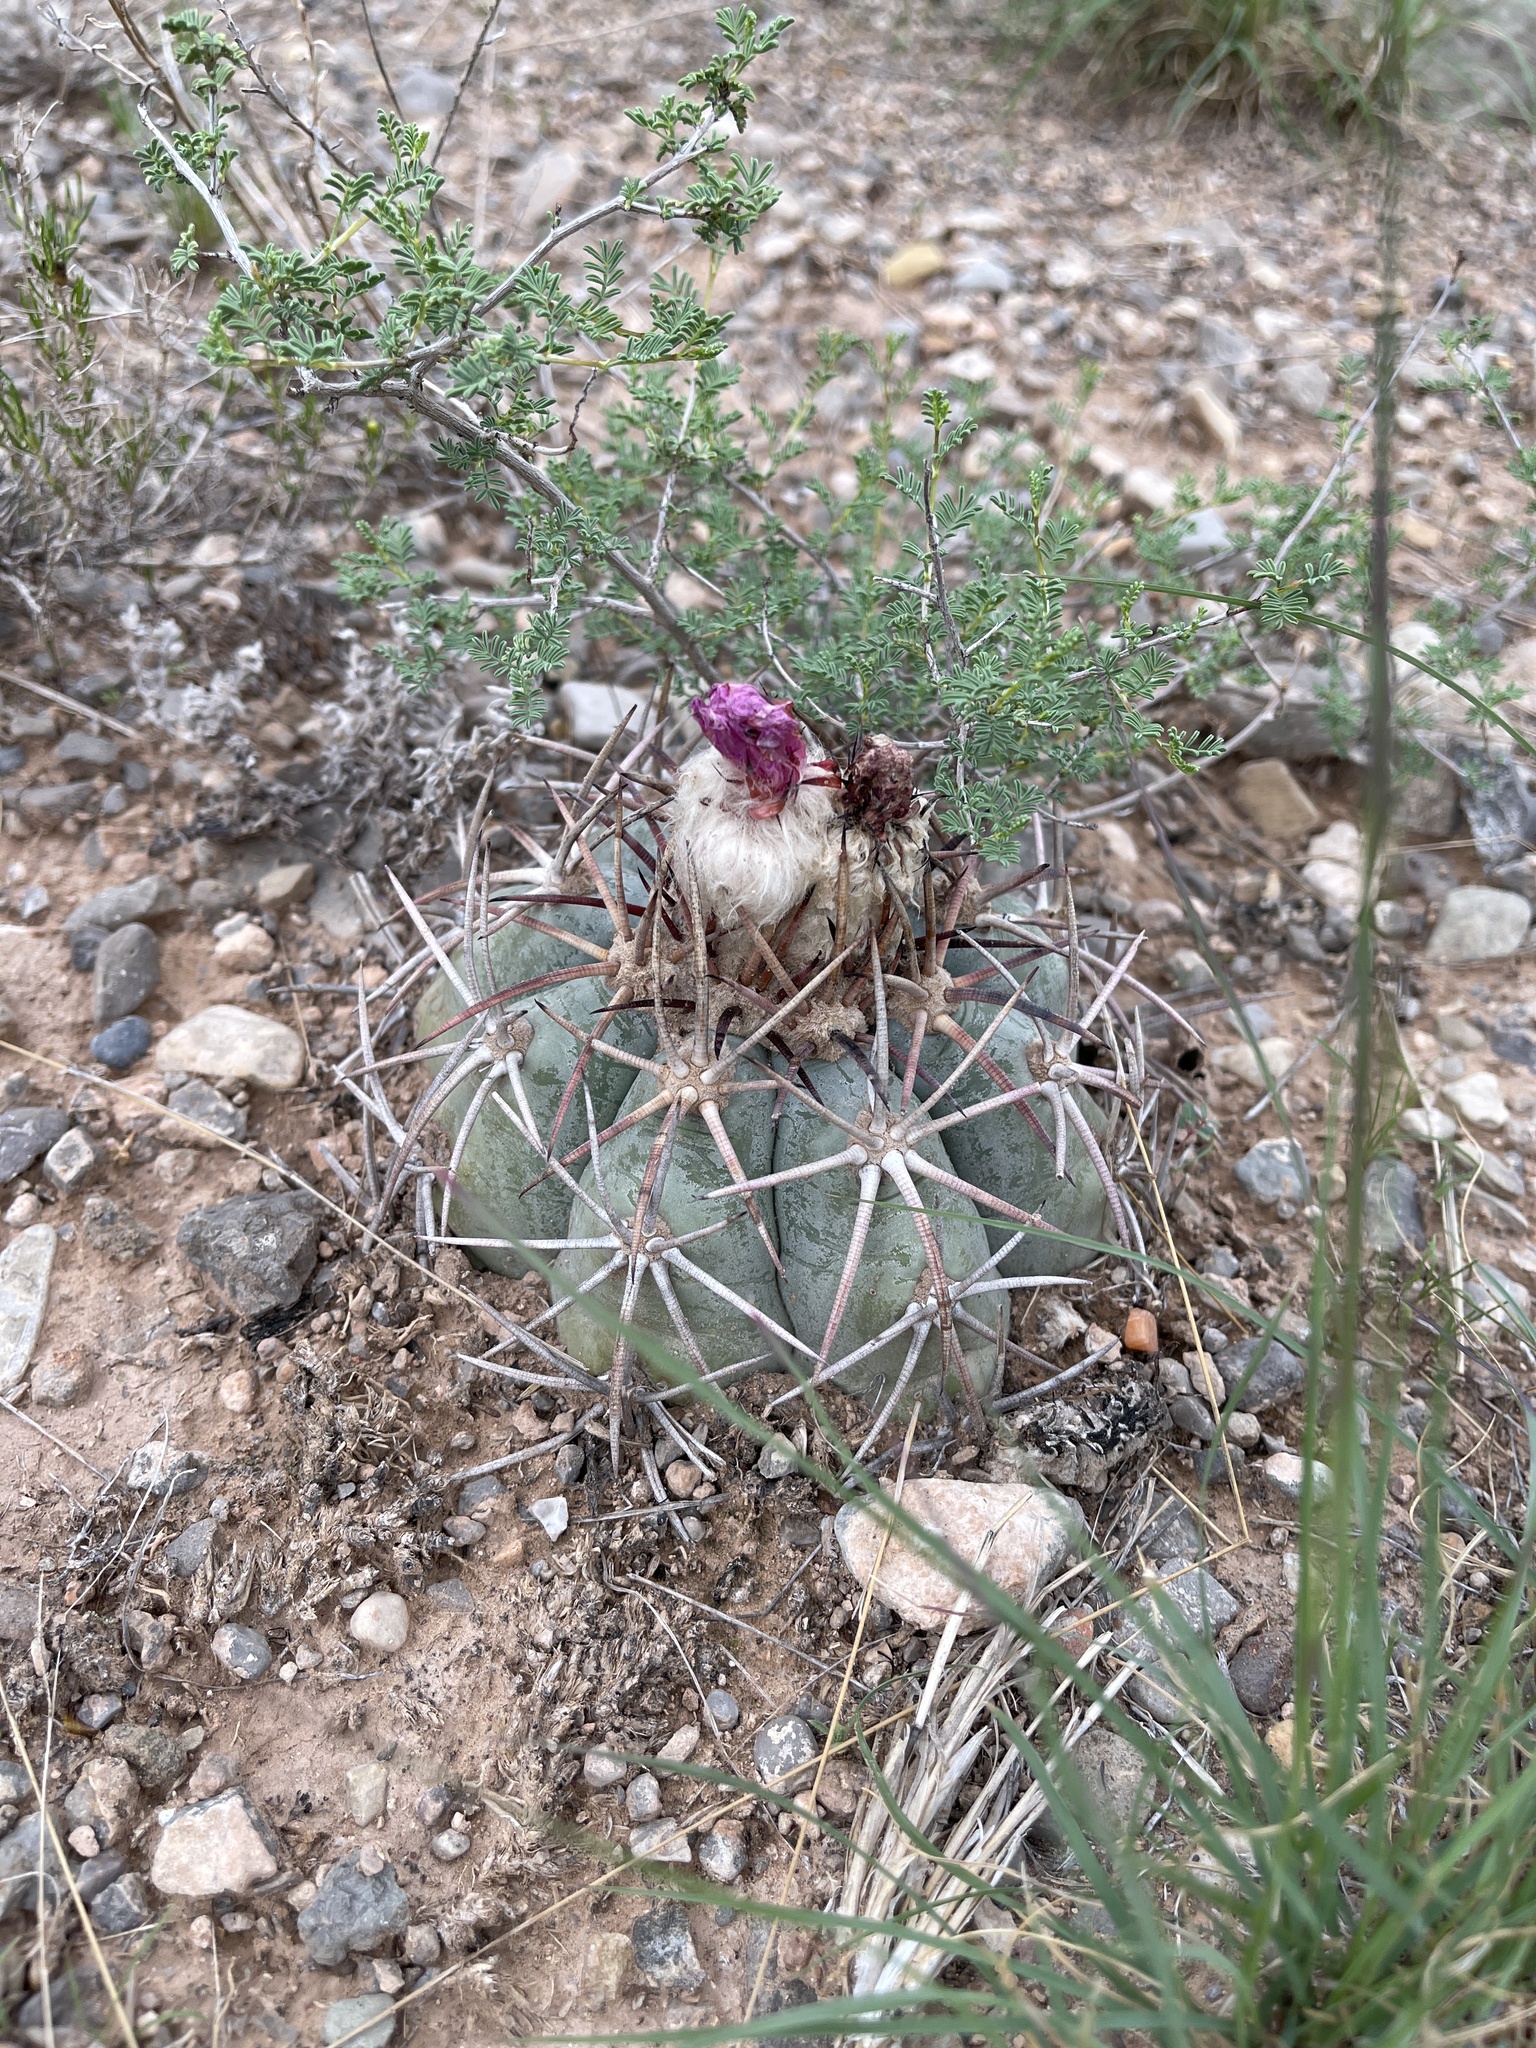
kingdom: Plantae
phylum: Tracheophyta
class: Magnoliopsida
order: Caryophyllales
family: Cactaceae
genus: Echinocactus
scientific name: Echinocactus horizonthalonius
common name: Devilshead
